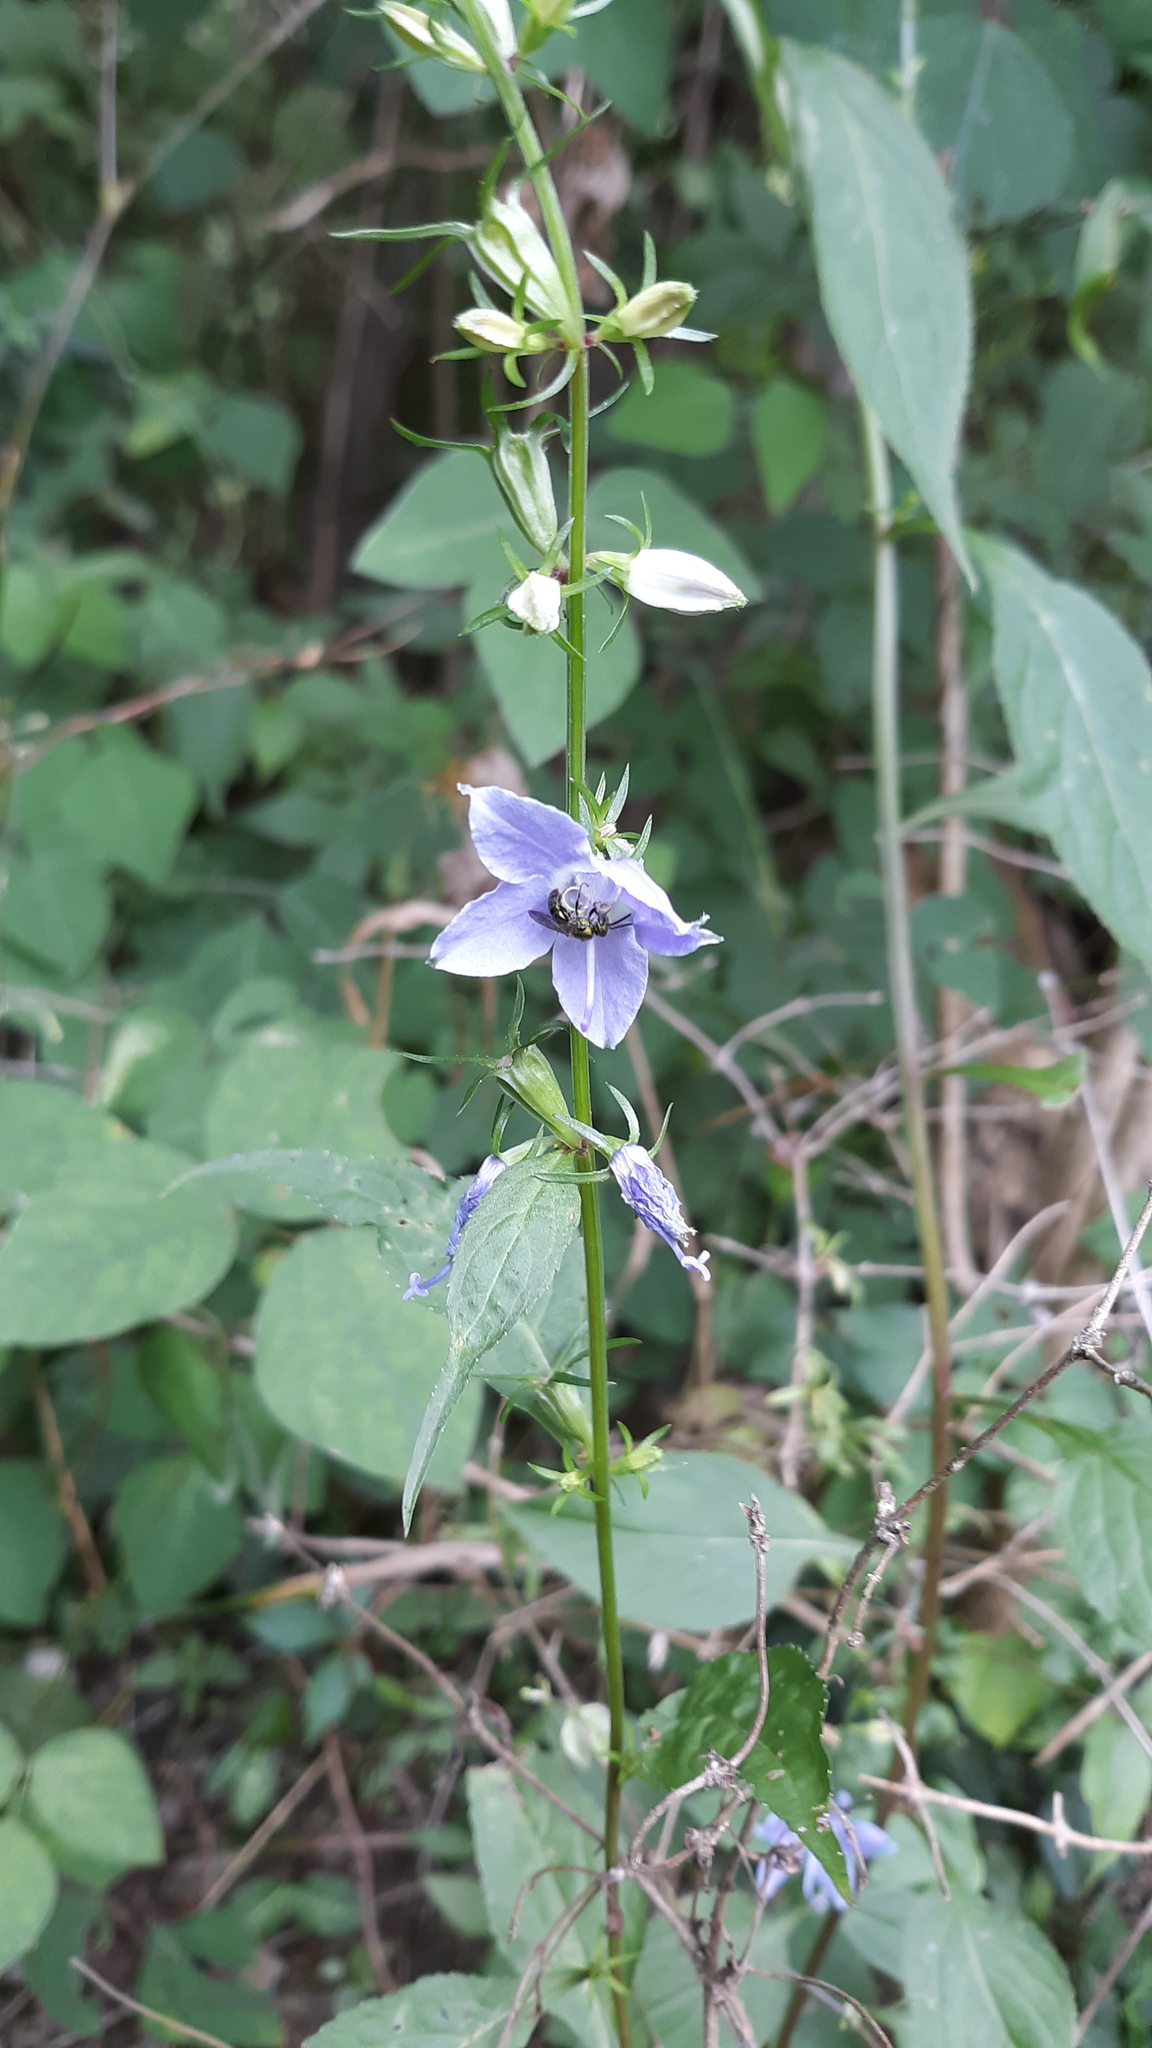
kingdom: Plantae
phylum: Tracheophyta
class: Magnoliopsida
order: Asterales
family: Campanulaceae
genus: Campanulastrum
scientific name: Campanulastrum americanum
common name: American bellflower
